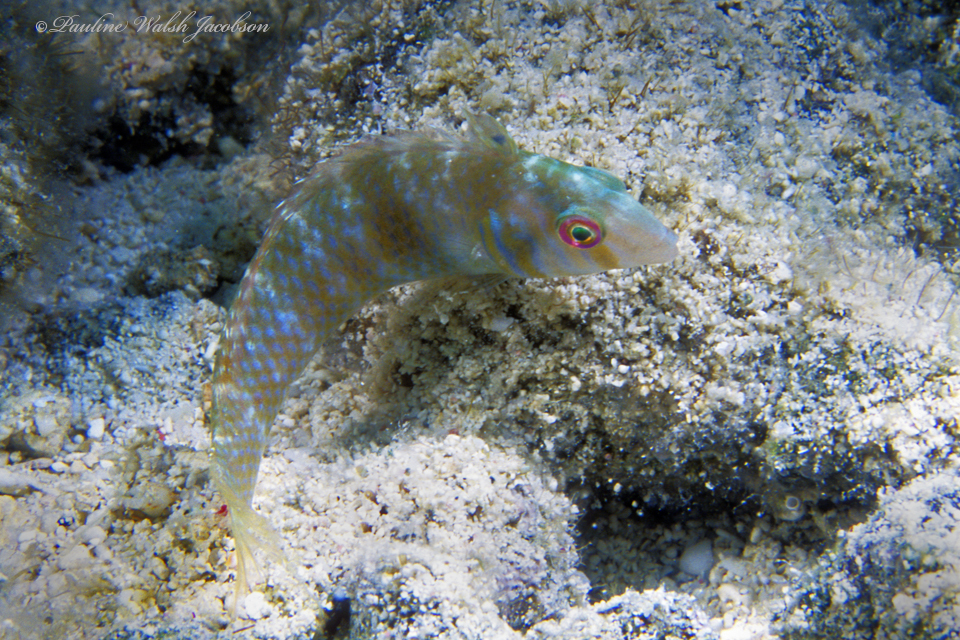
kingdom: Animalia
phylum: Chordata
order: Perciformes
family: Labridae
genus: Xyrichtys
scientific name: Xyrichtys splendens
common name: Green razorfish
